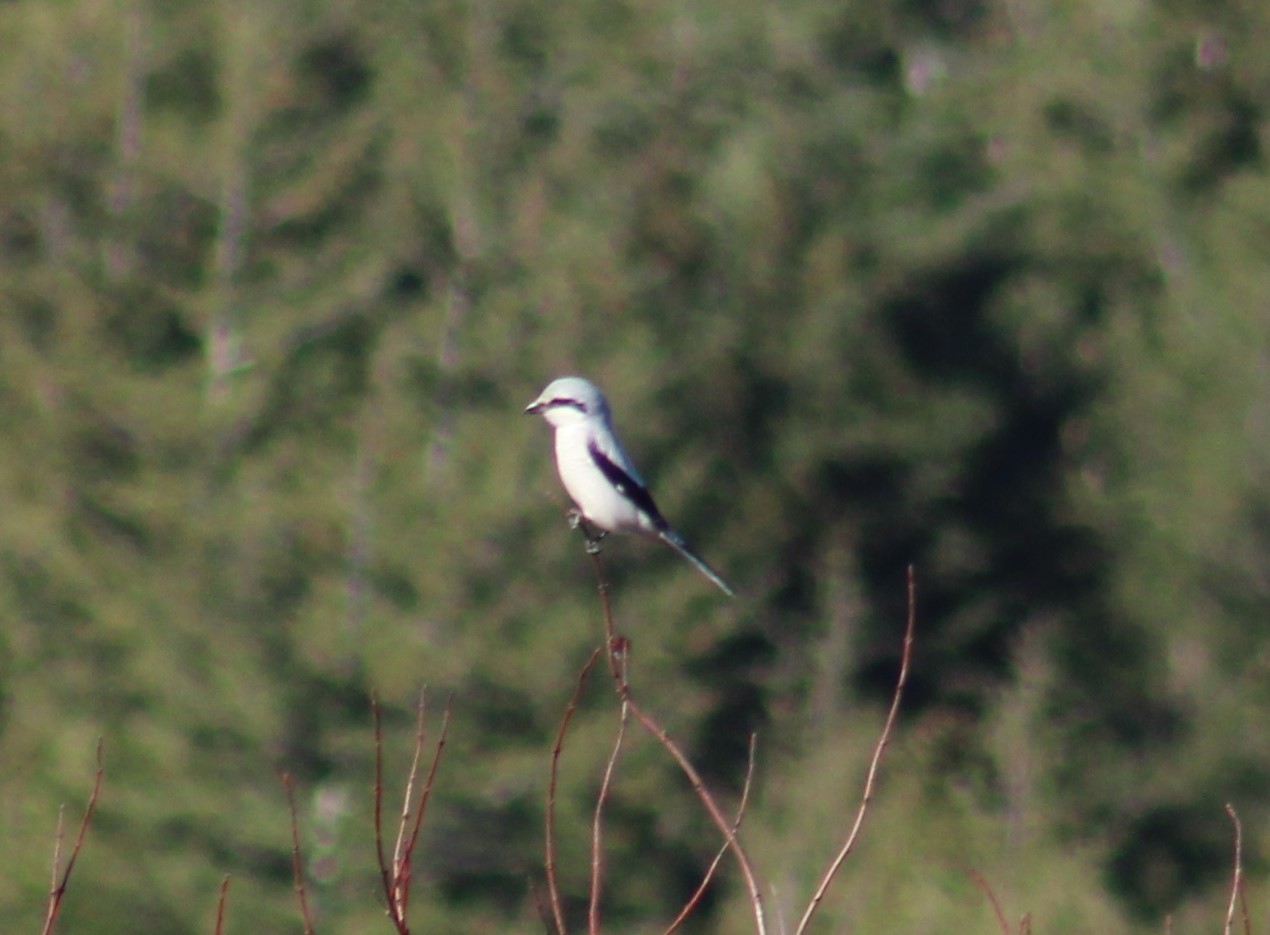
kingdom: Animalia
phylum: Chordata
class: Aves
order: Passeriformes
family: Laniidae
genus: Lanius
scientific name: Lanius borealis
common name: Northern shrike
